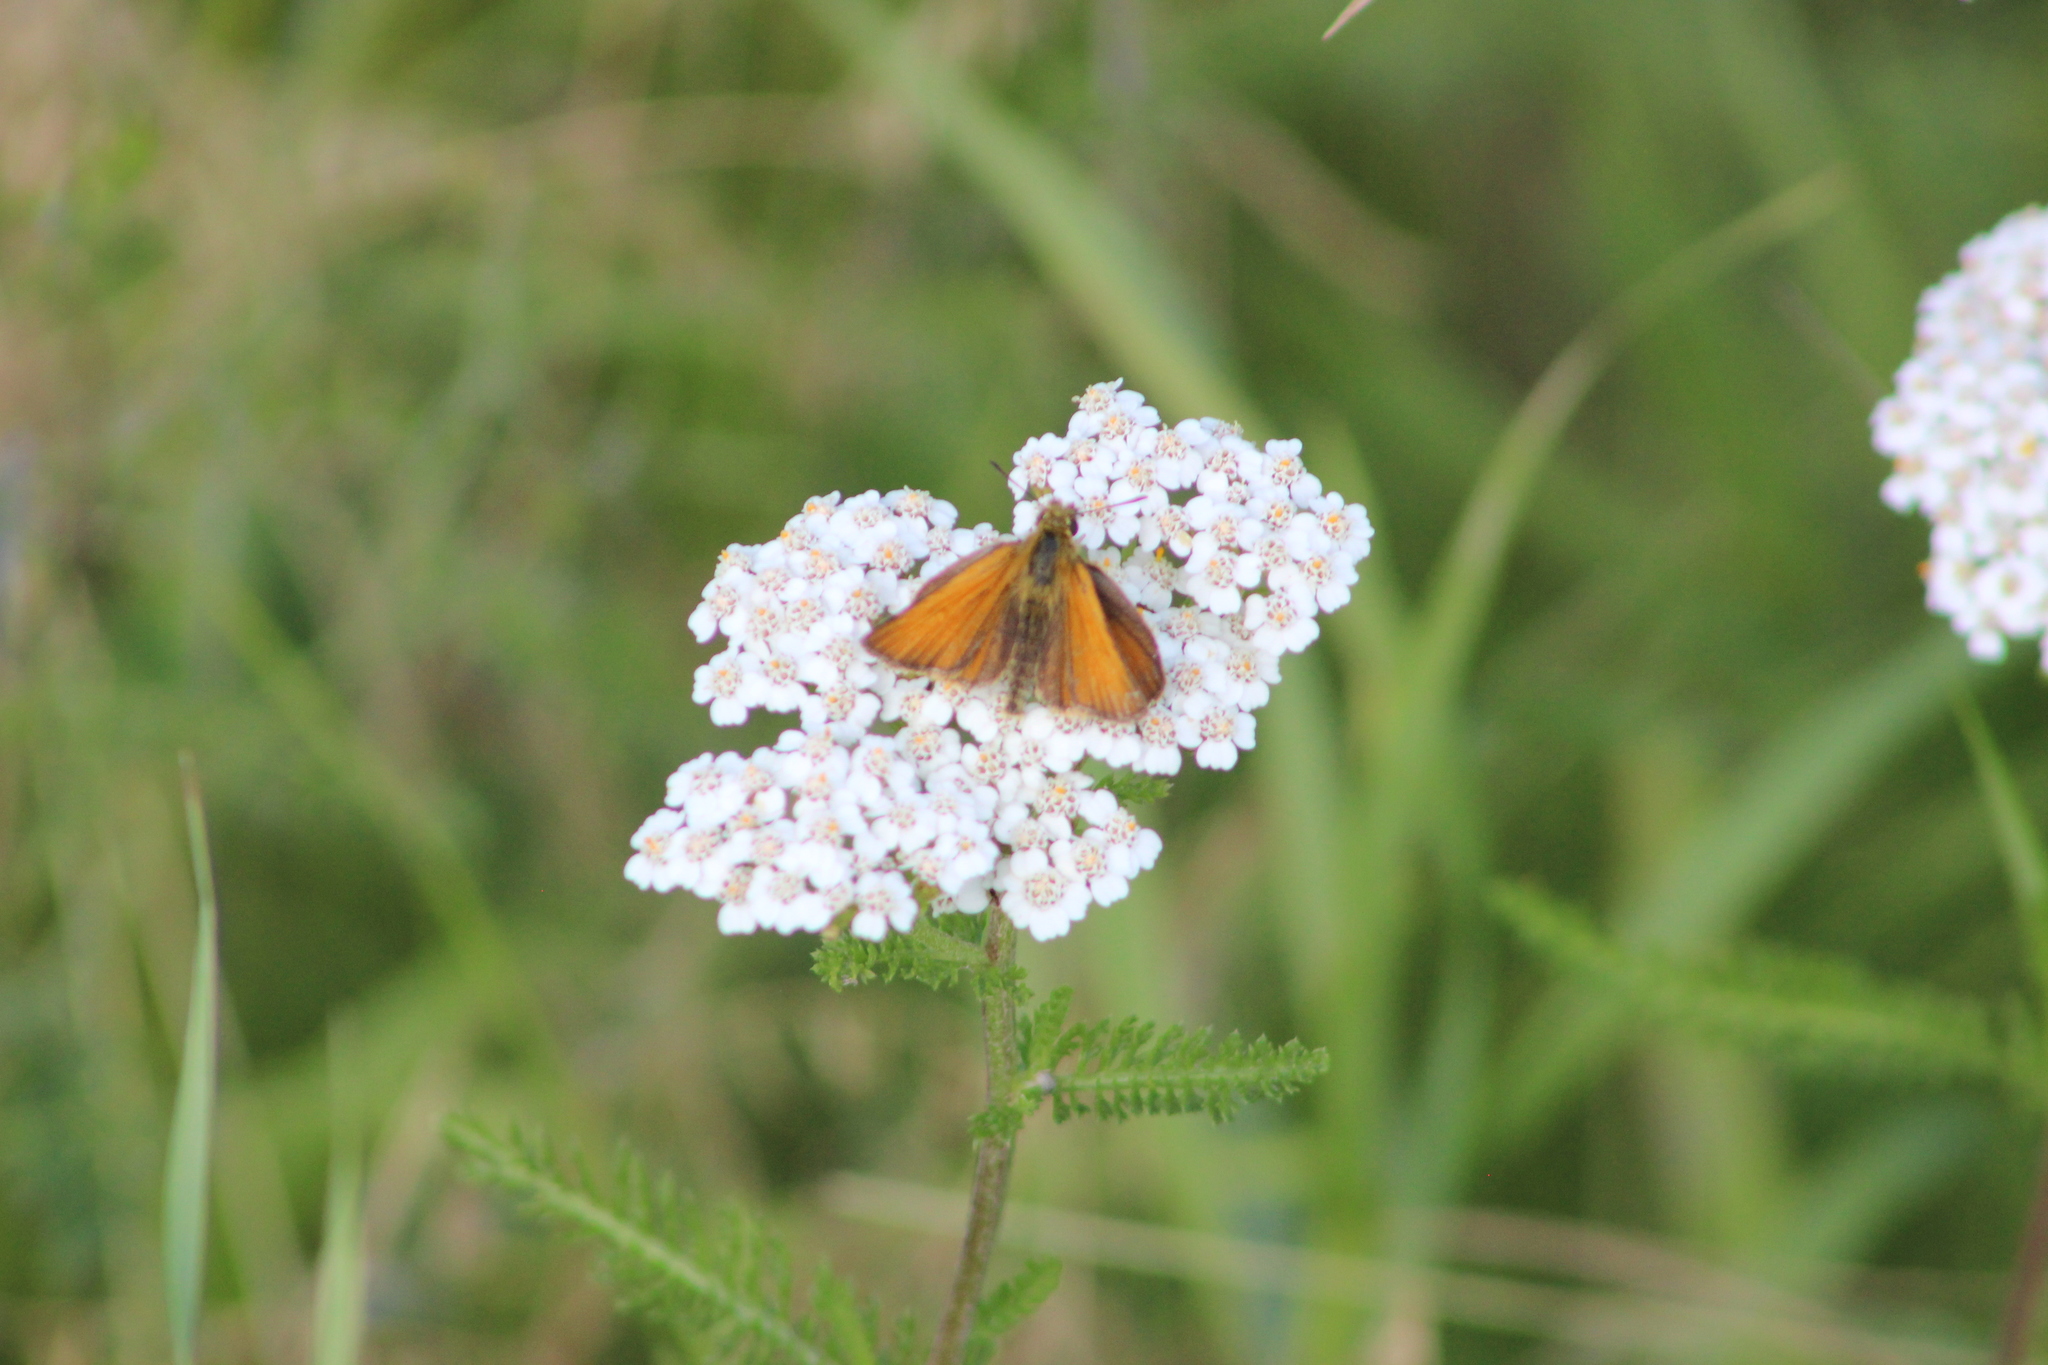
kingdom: Animalia
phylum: Arthropoda
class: Insecta
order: Lepidoptera
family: Hesperiidae
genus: Thymelicus
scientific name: Thymelicus lineola
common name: Essex skipper
